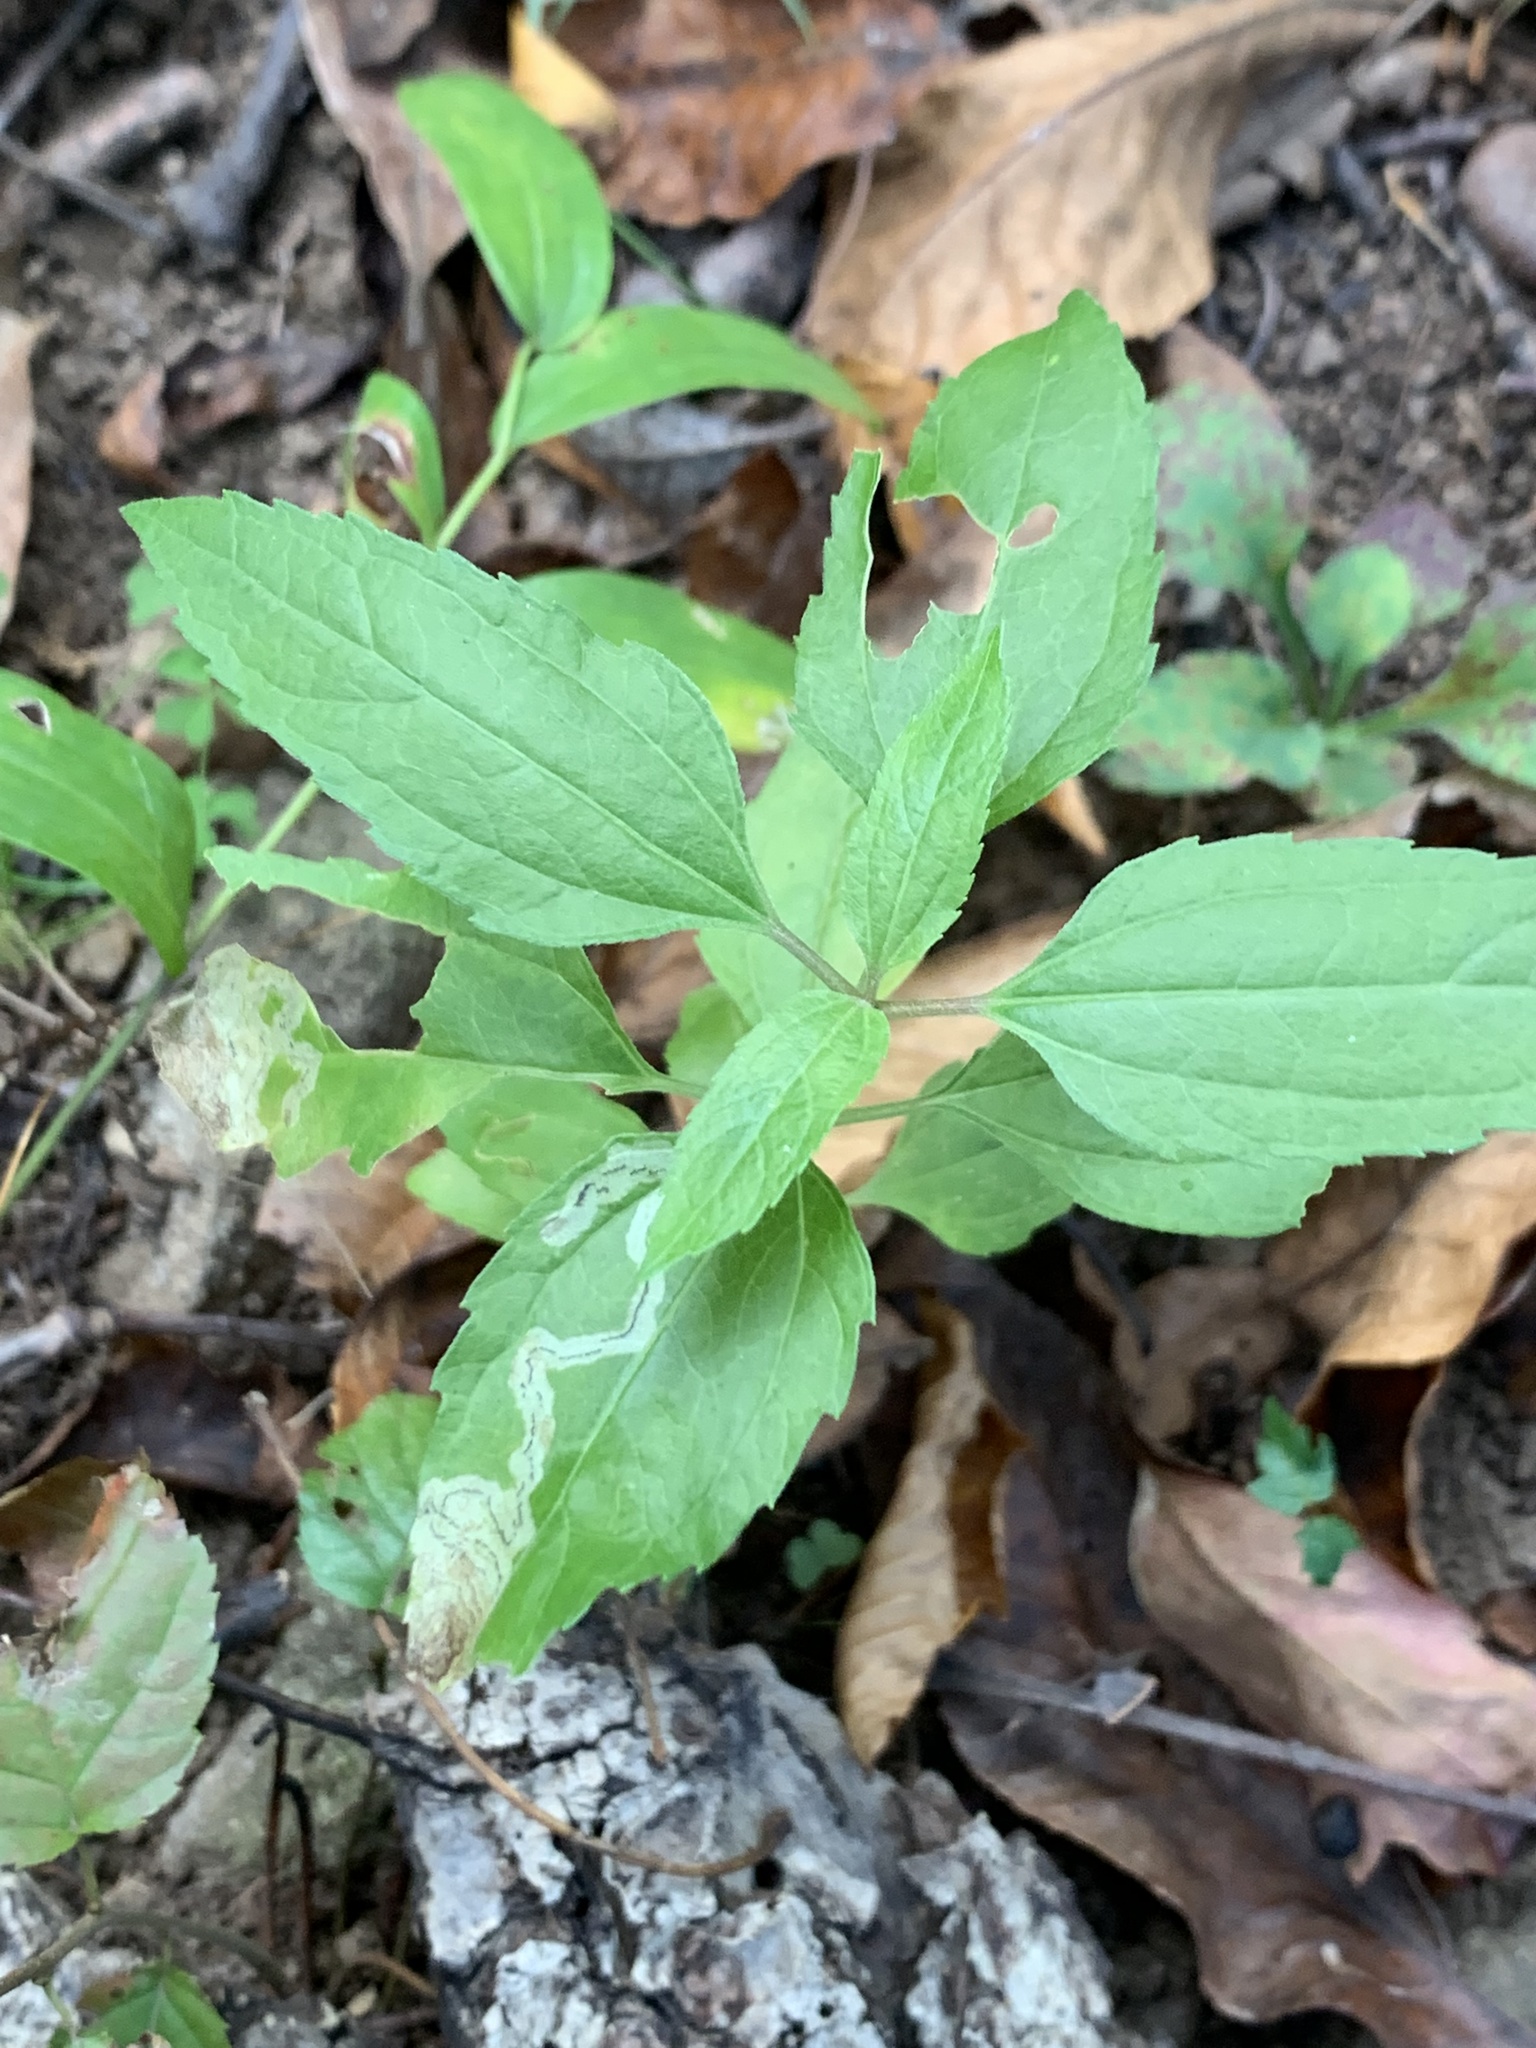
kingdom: Animalia
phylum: Arthropoda
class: Insecta
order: Diptera
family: Agromyzidae
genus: Liriomyza
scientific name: Liriomyza cracentis
